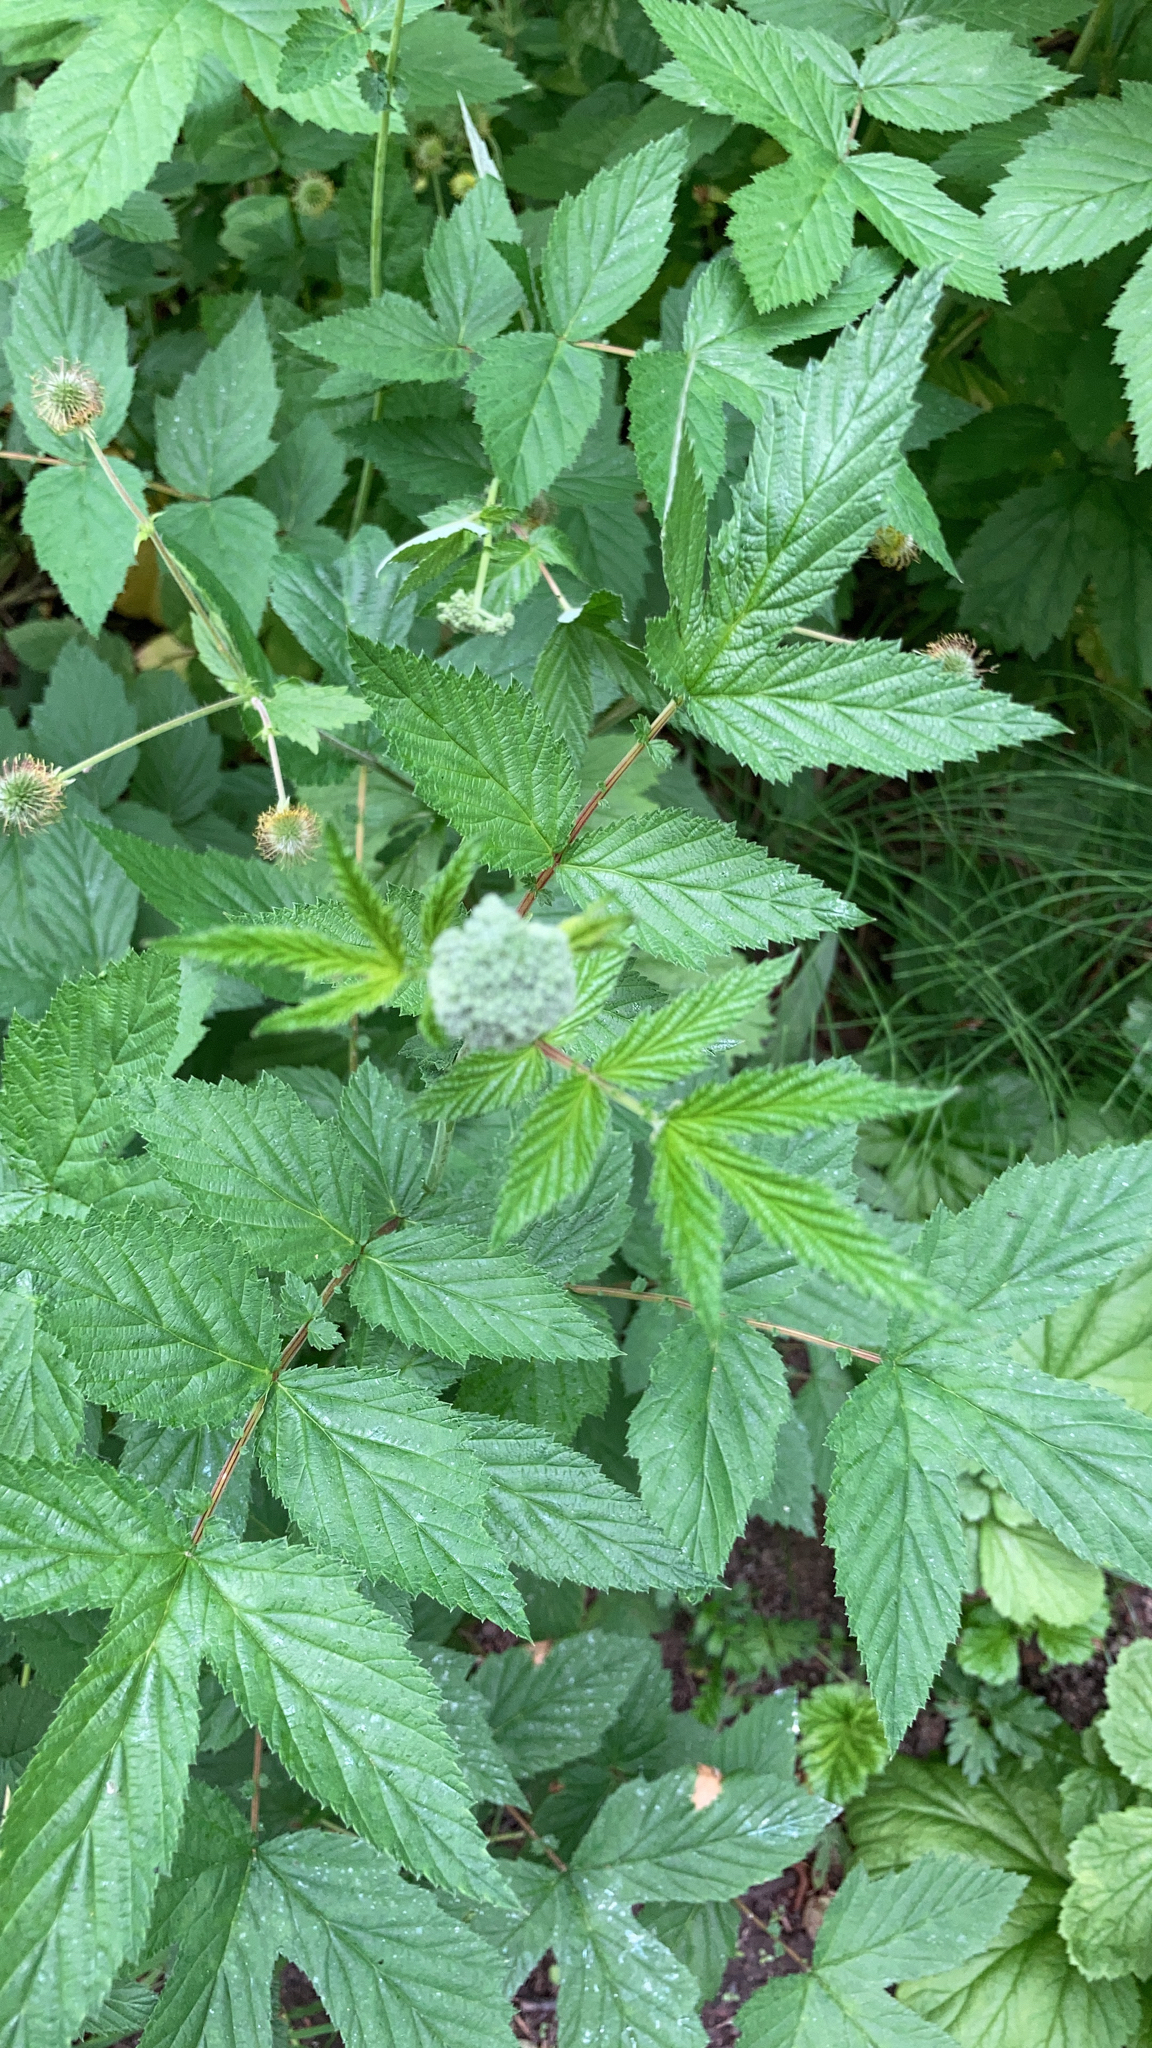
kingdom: Plantae
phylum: Tracheophyta
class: Magnoliopsida
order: Rosales
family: Rosaceae
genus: Filipendula
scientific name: Filipendula ulmaria
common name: Meadowsweet
